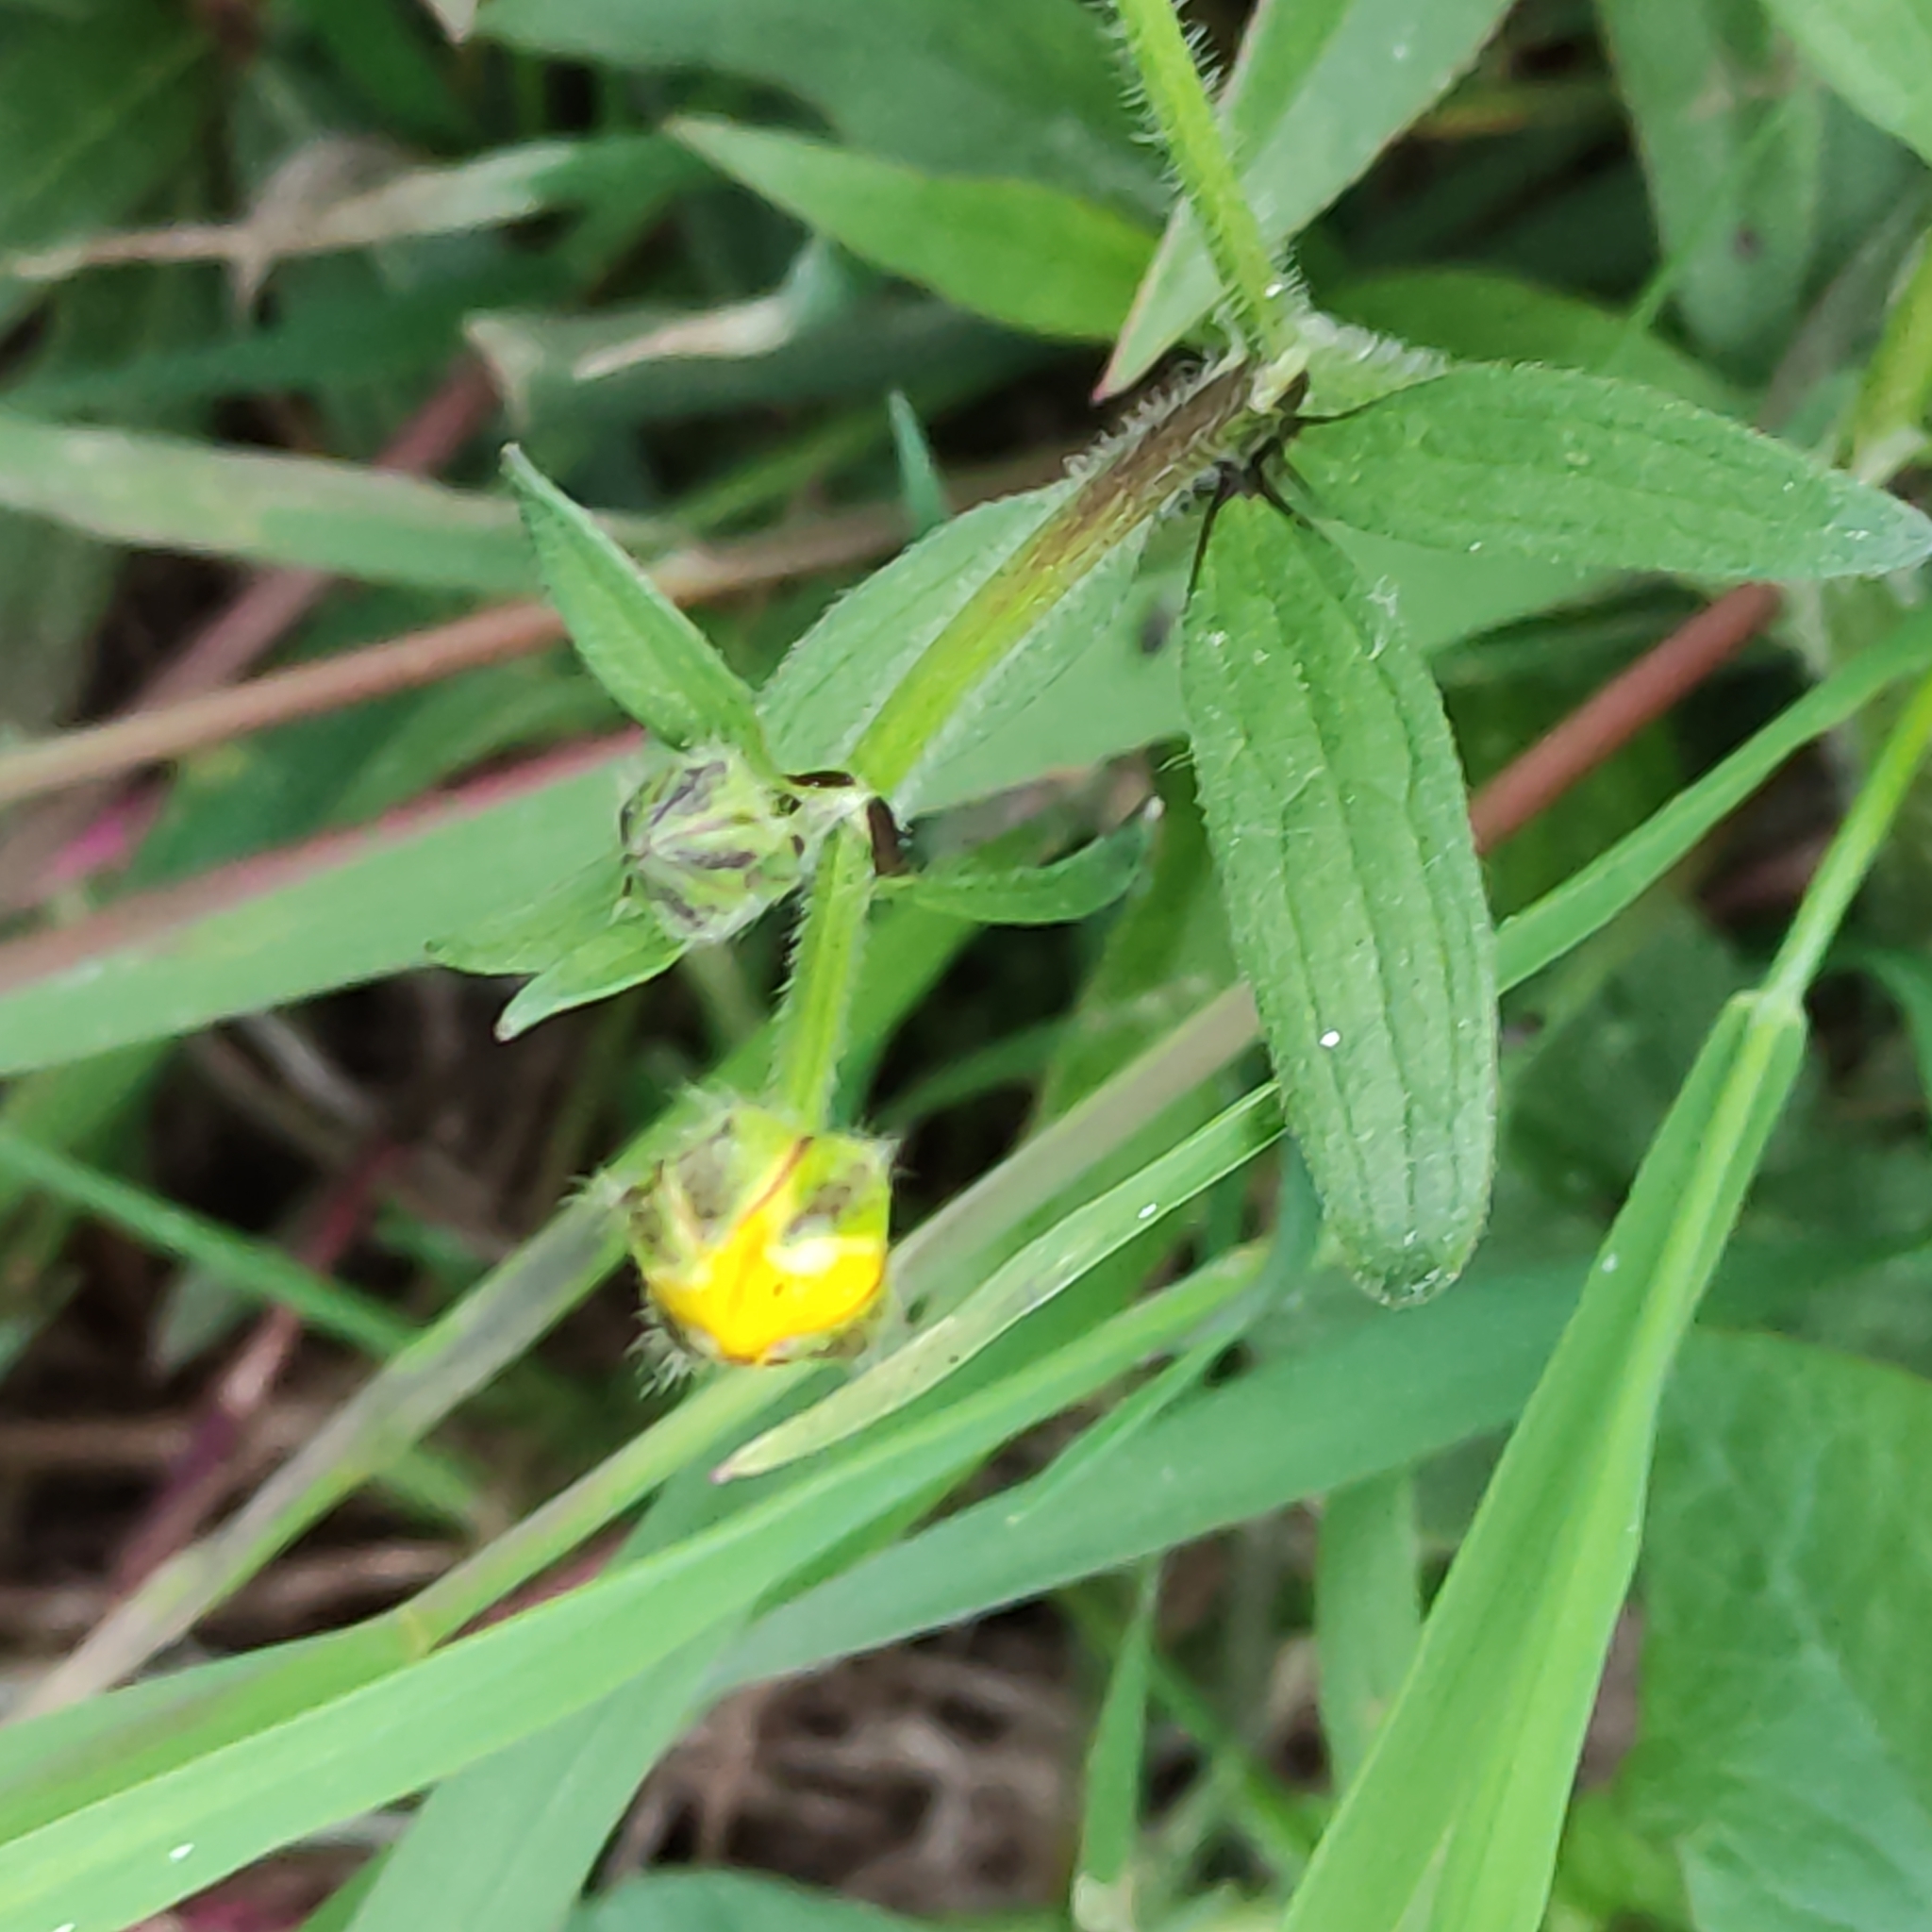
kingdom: Plantae
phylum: Tracheophyta
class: Magnoliopsida
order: Ranunculales
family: Ranunculaceae
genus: Ranunculus
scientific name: Ranunculus repens
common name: Creeping buttercup
